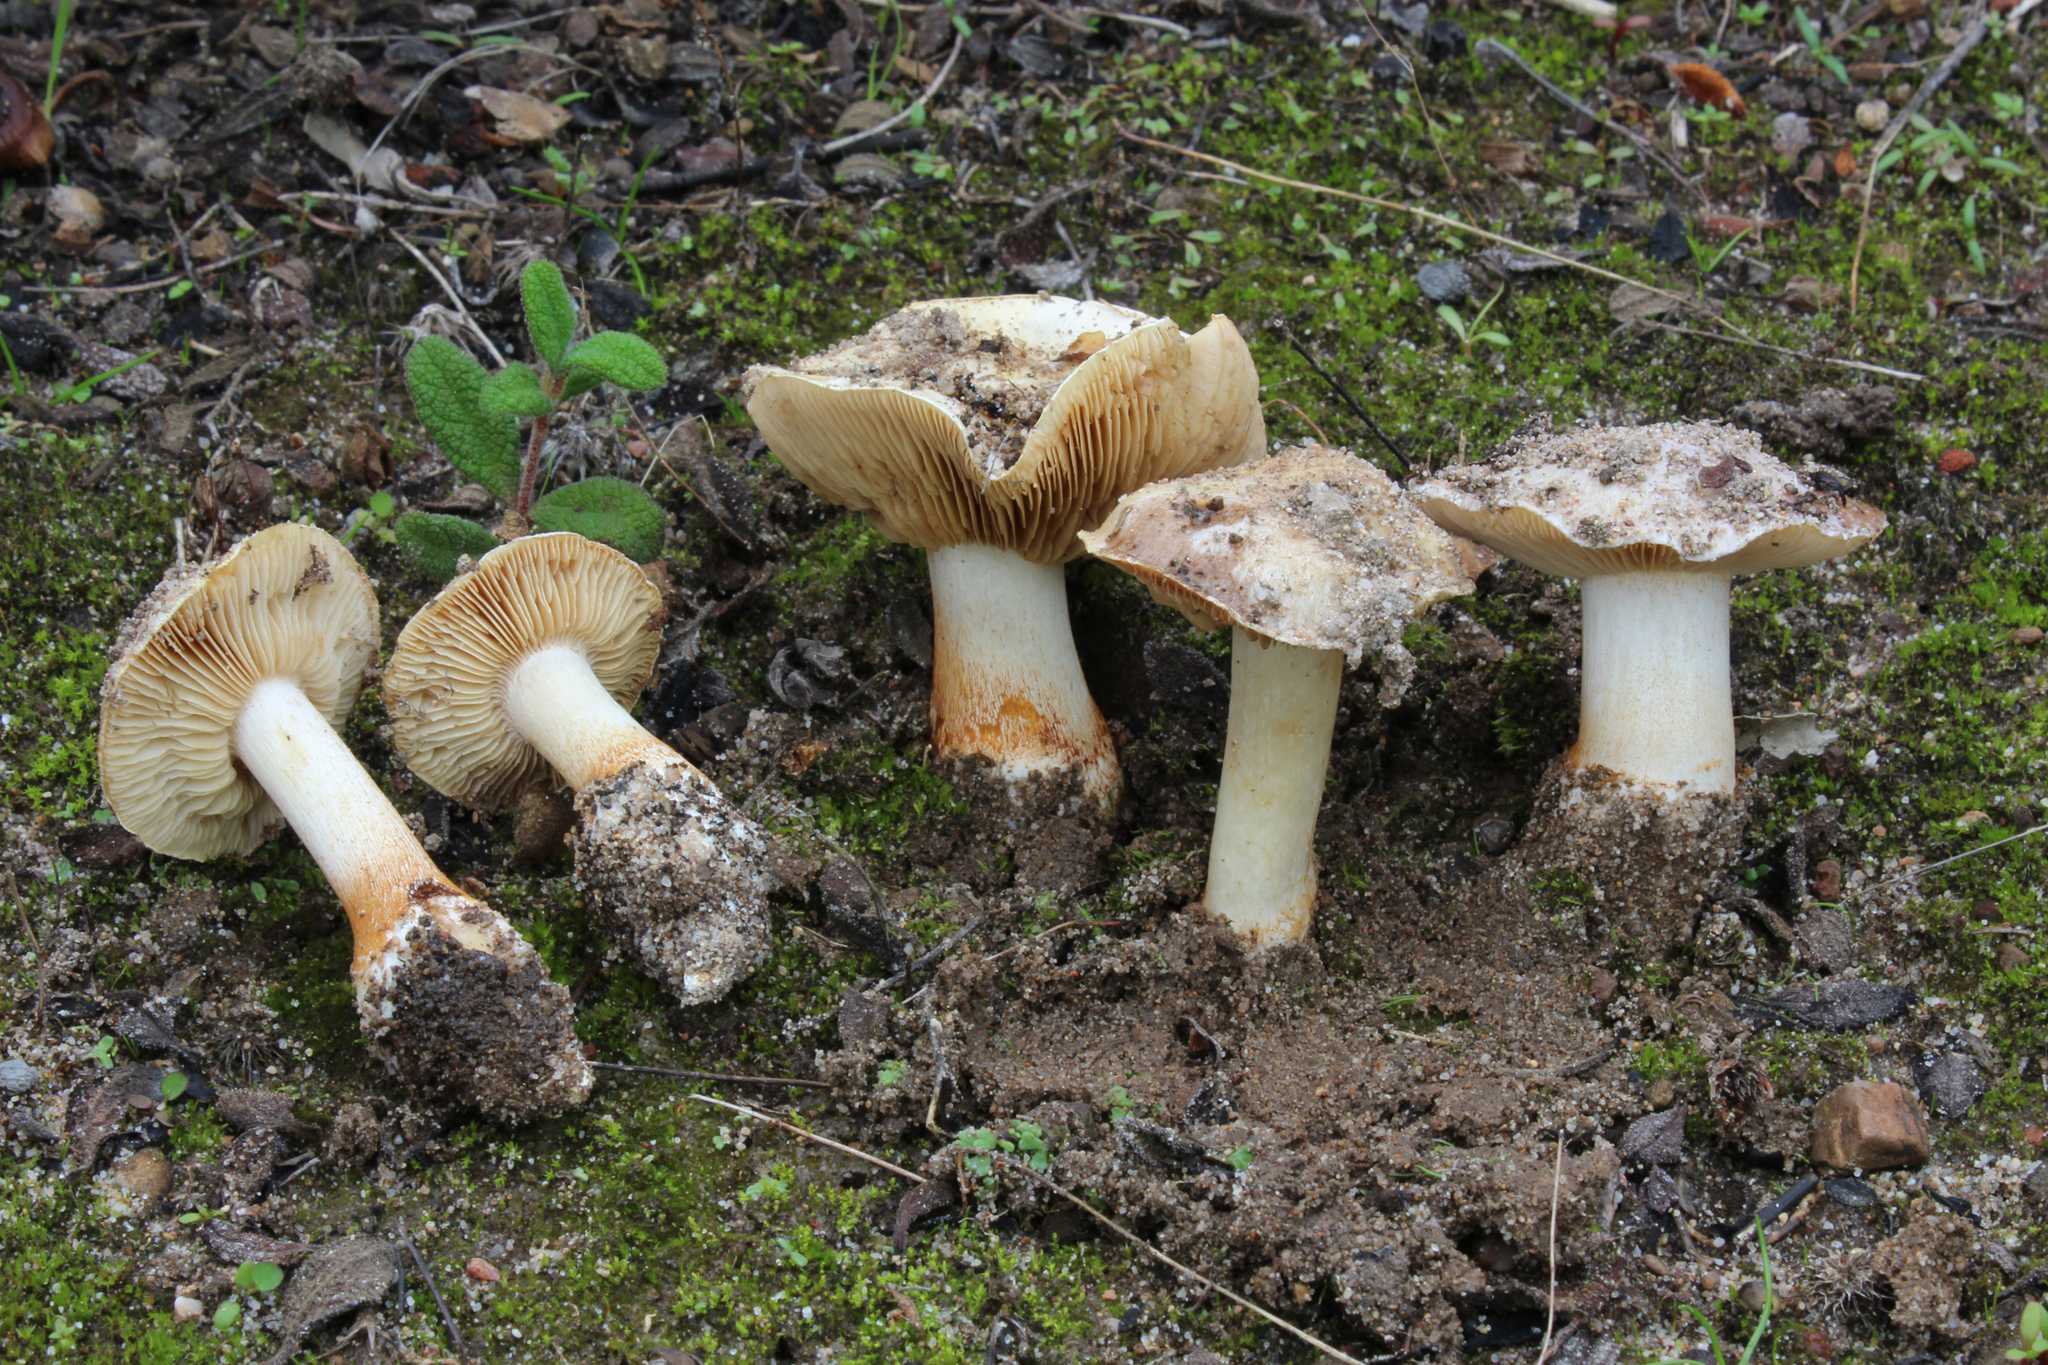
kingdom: Fungi
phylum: Basidiomycota
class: Agaricomycetes
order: Agaricales
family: Cortinariaceae
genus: Thaxterogaster
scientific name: Thaxterogaster coeruleopallescens
